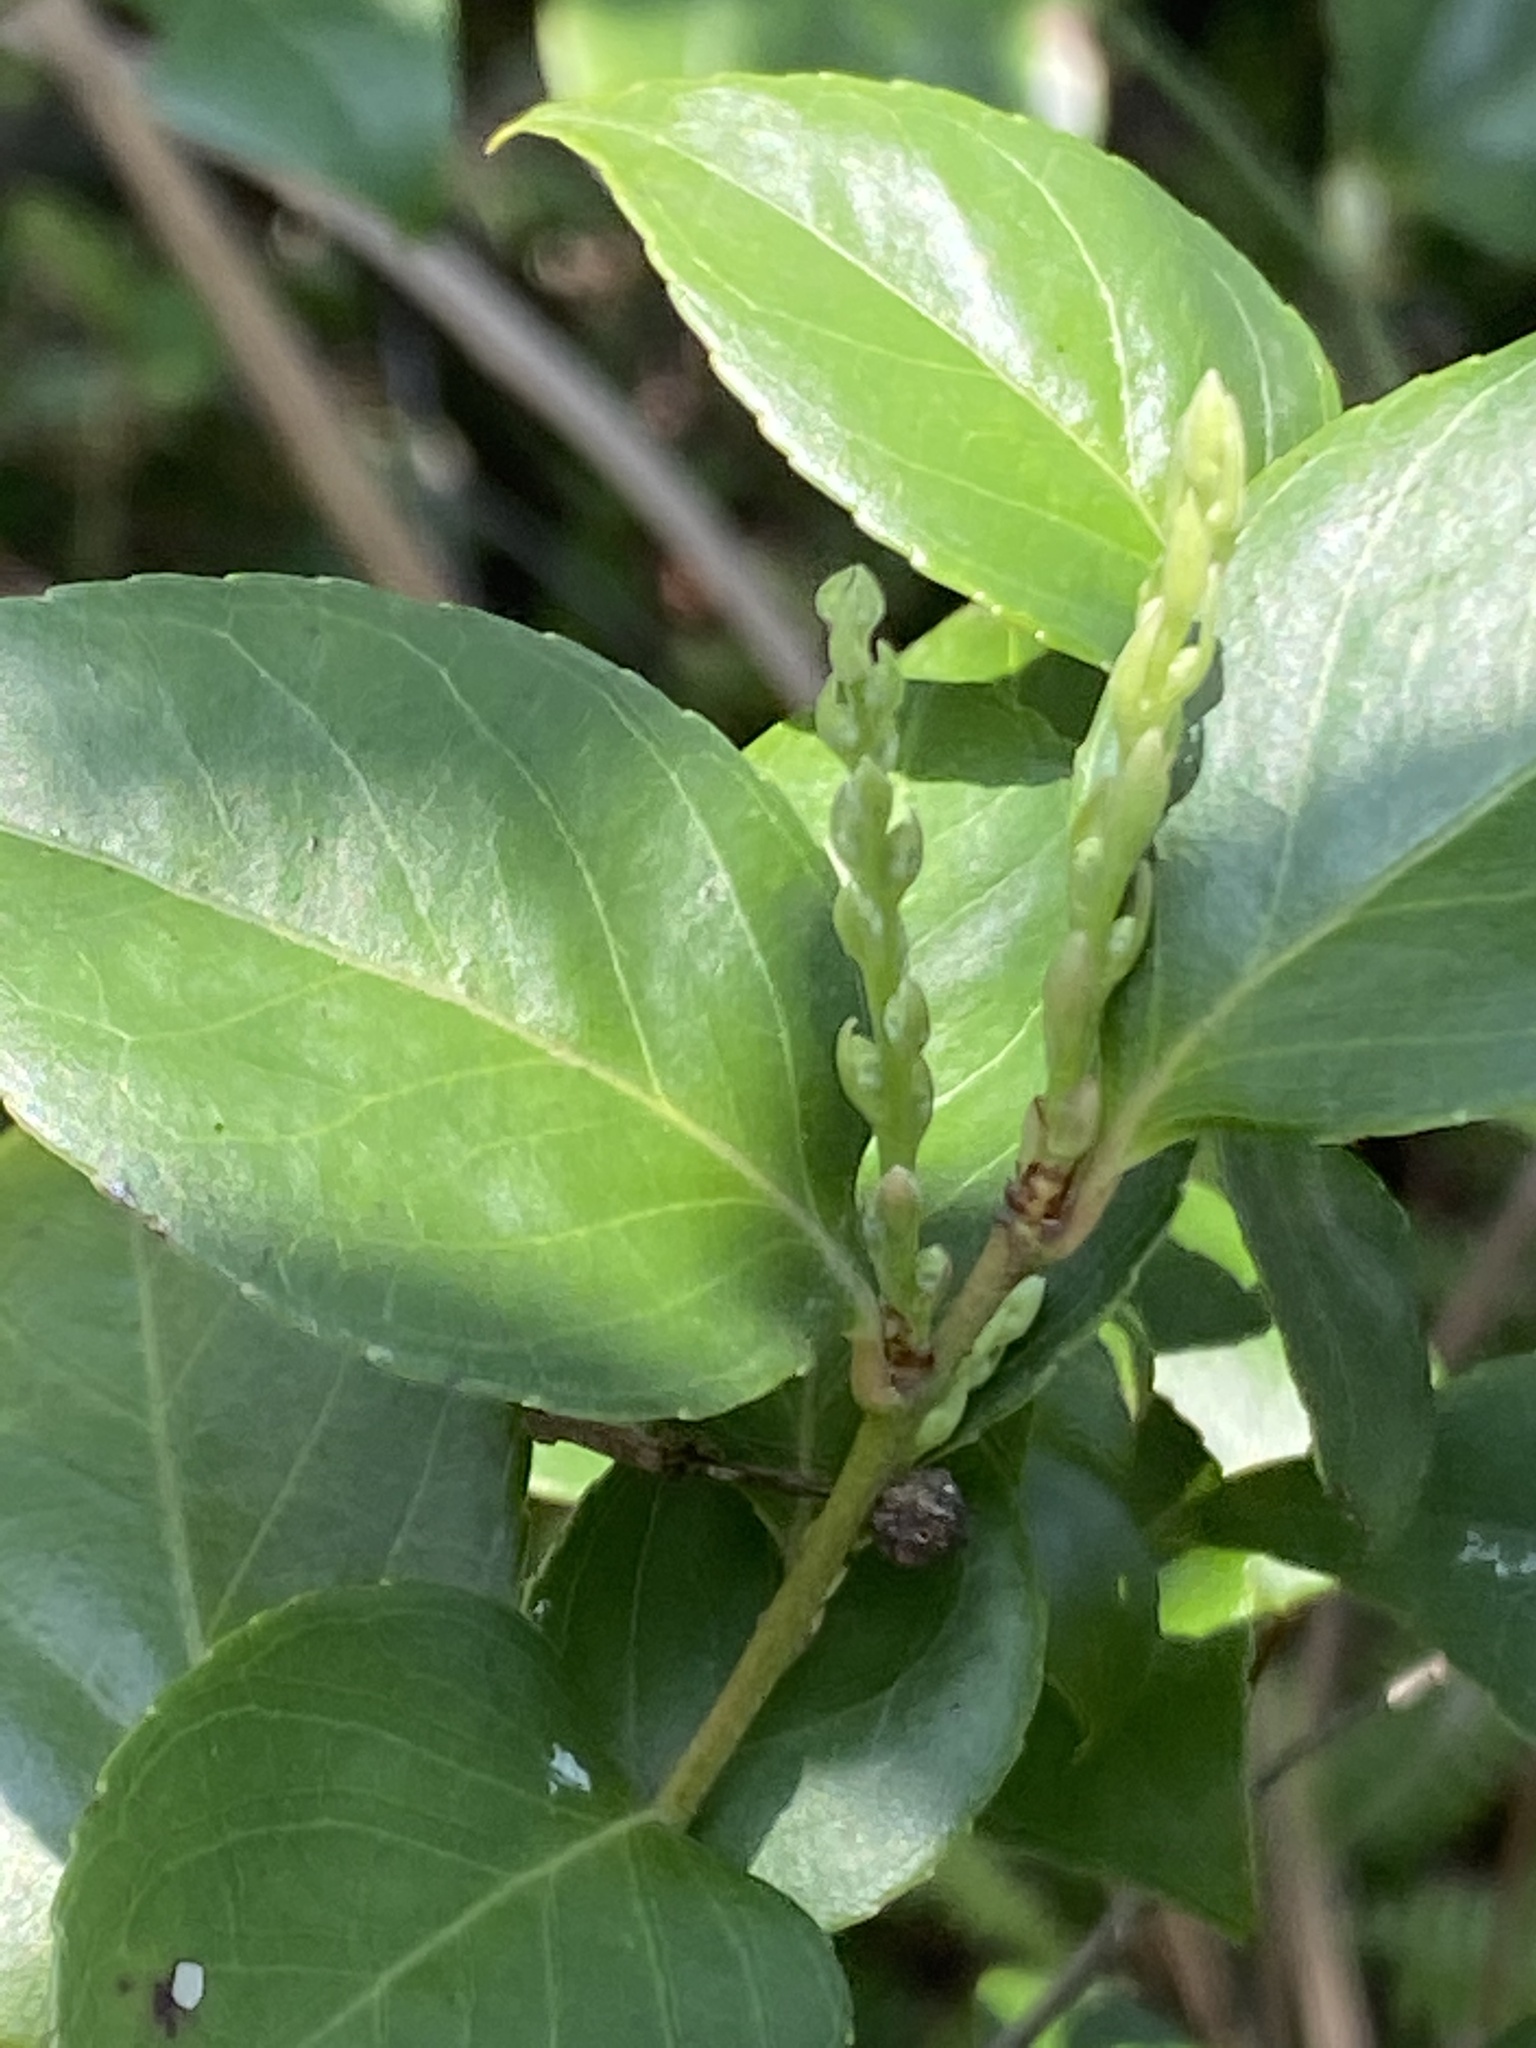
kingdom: Plantae
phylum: Tracheophyta
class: Magnoliopsida
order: Ericales
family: Ericaceae
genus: Vaccinium
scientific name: Vaccinium bracteatum
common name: Sea bilberry
